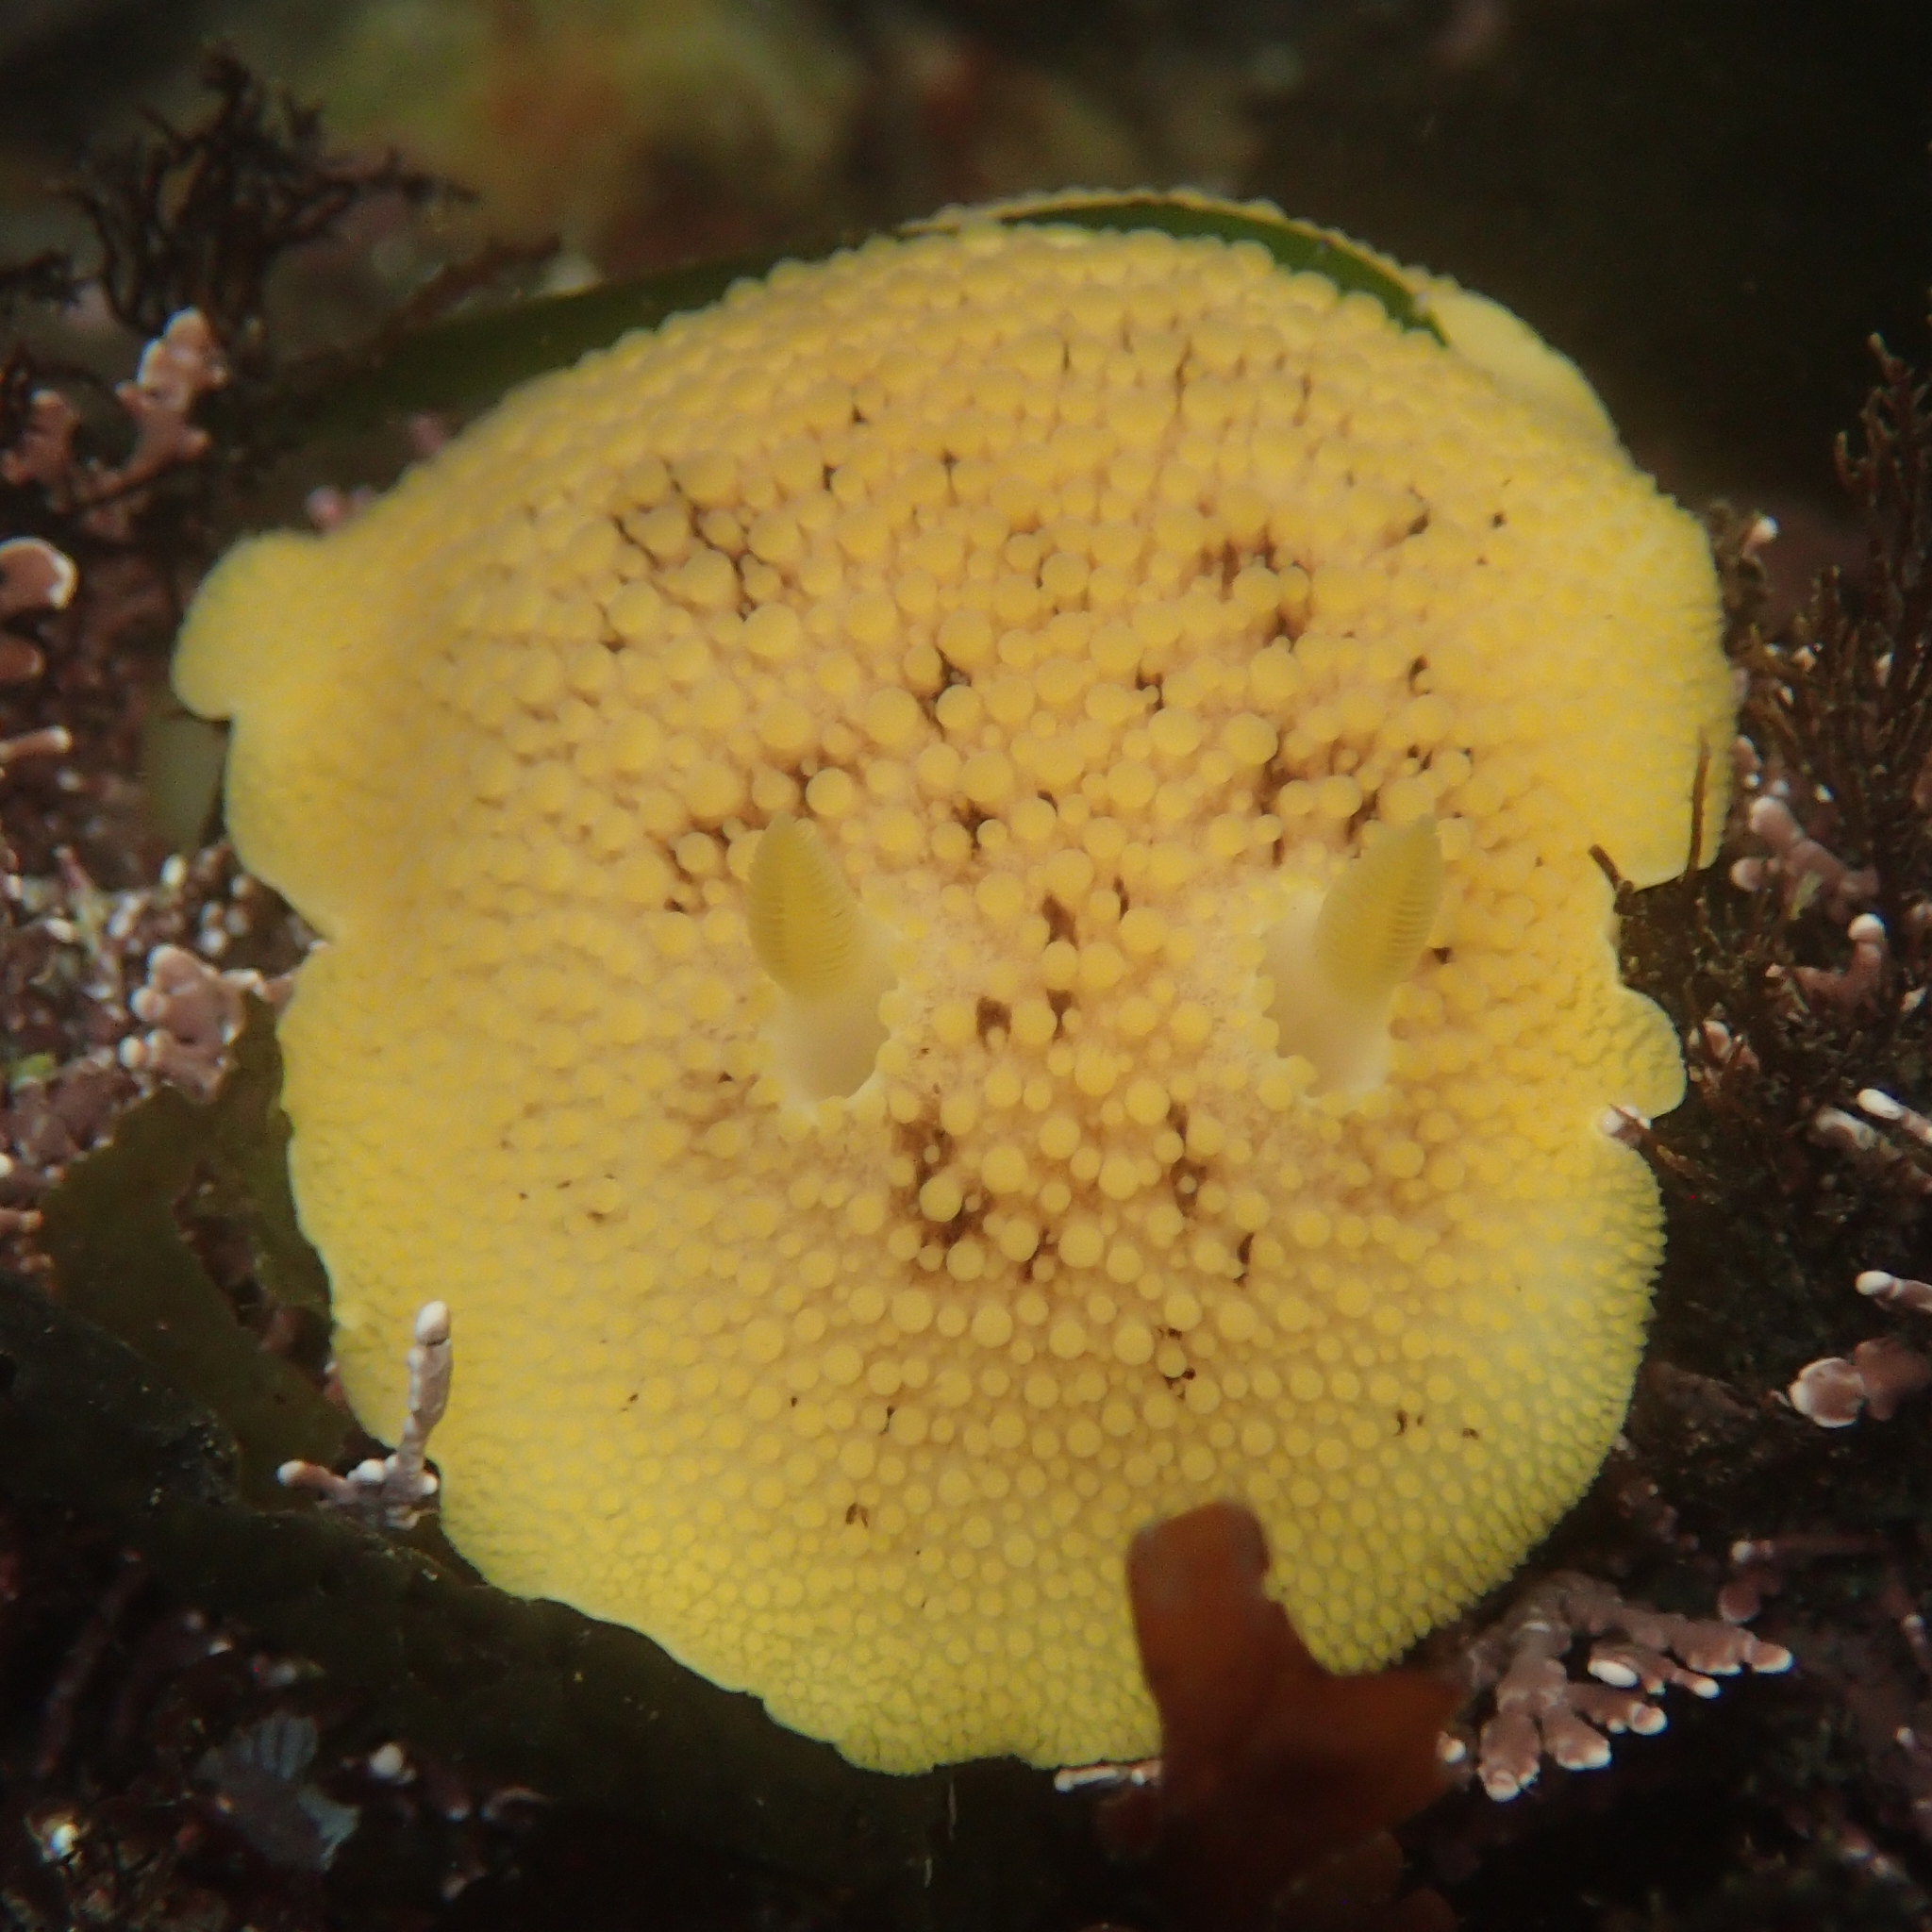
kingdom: Animalia
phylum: Mollusca
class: Gastropoda
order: Nudibranchia
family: Discodorididae
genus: Peltodoris
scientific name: Peltodoris nobilis
